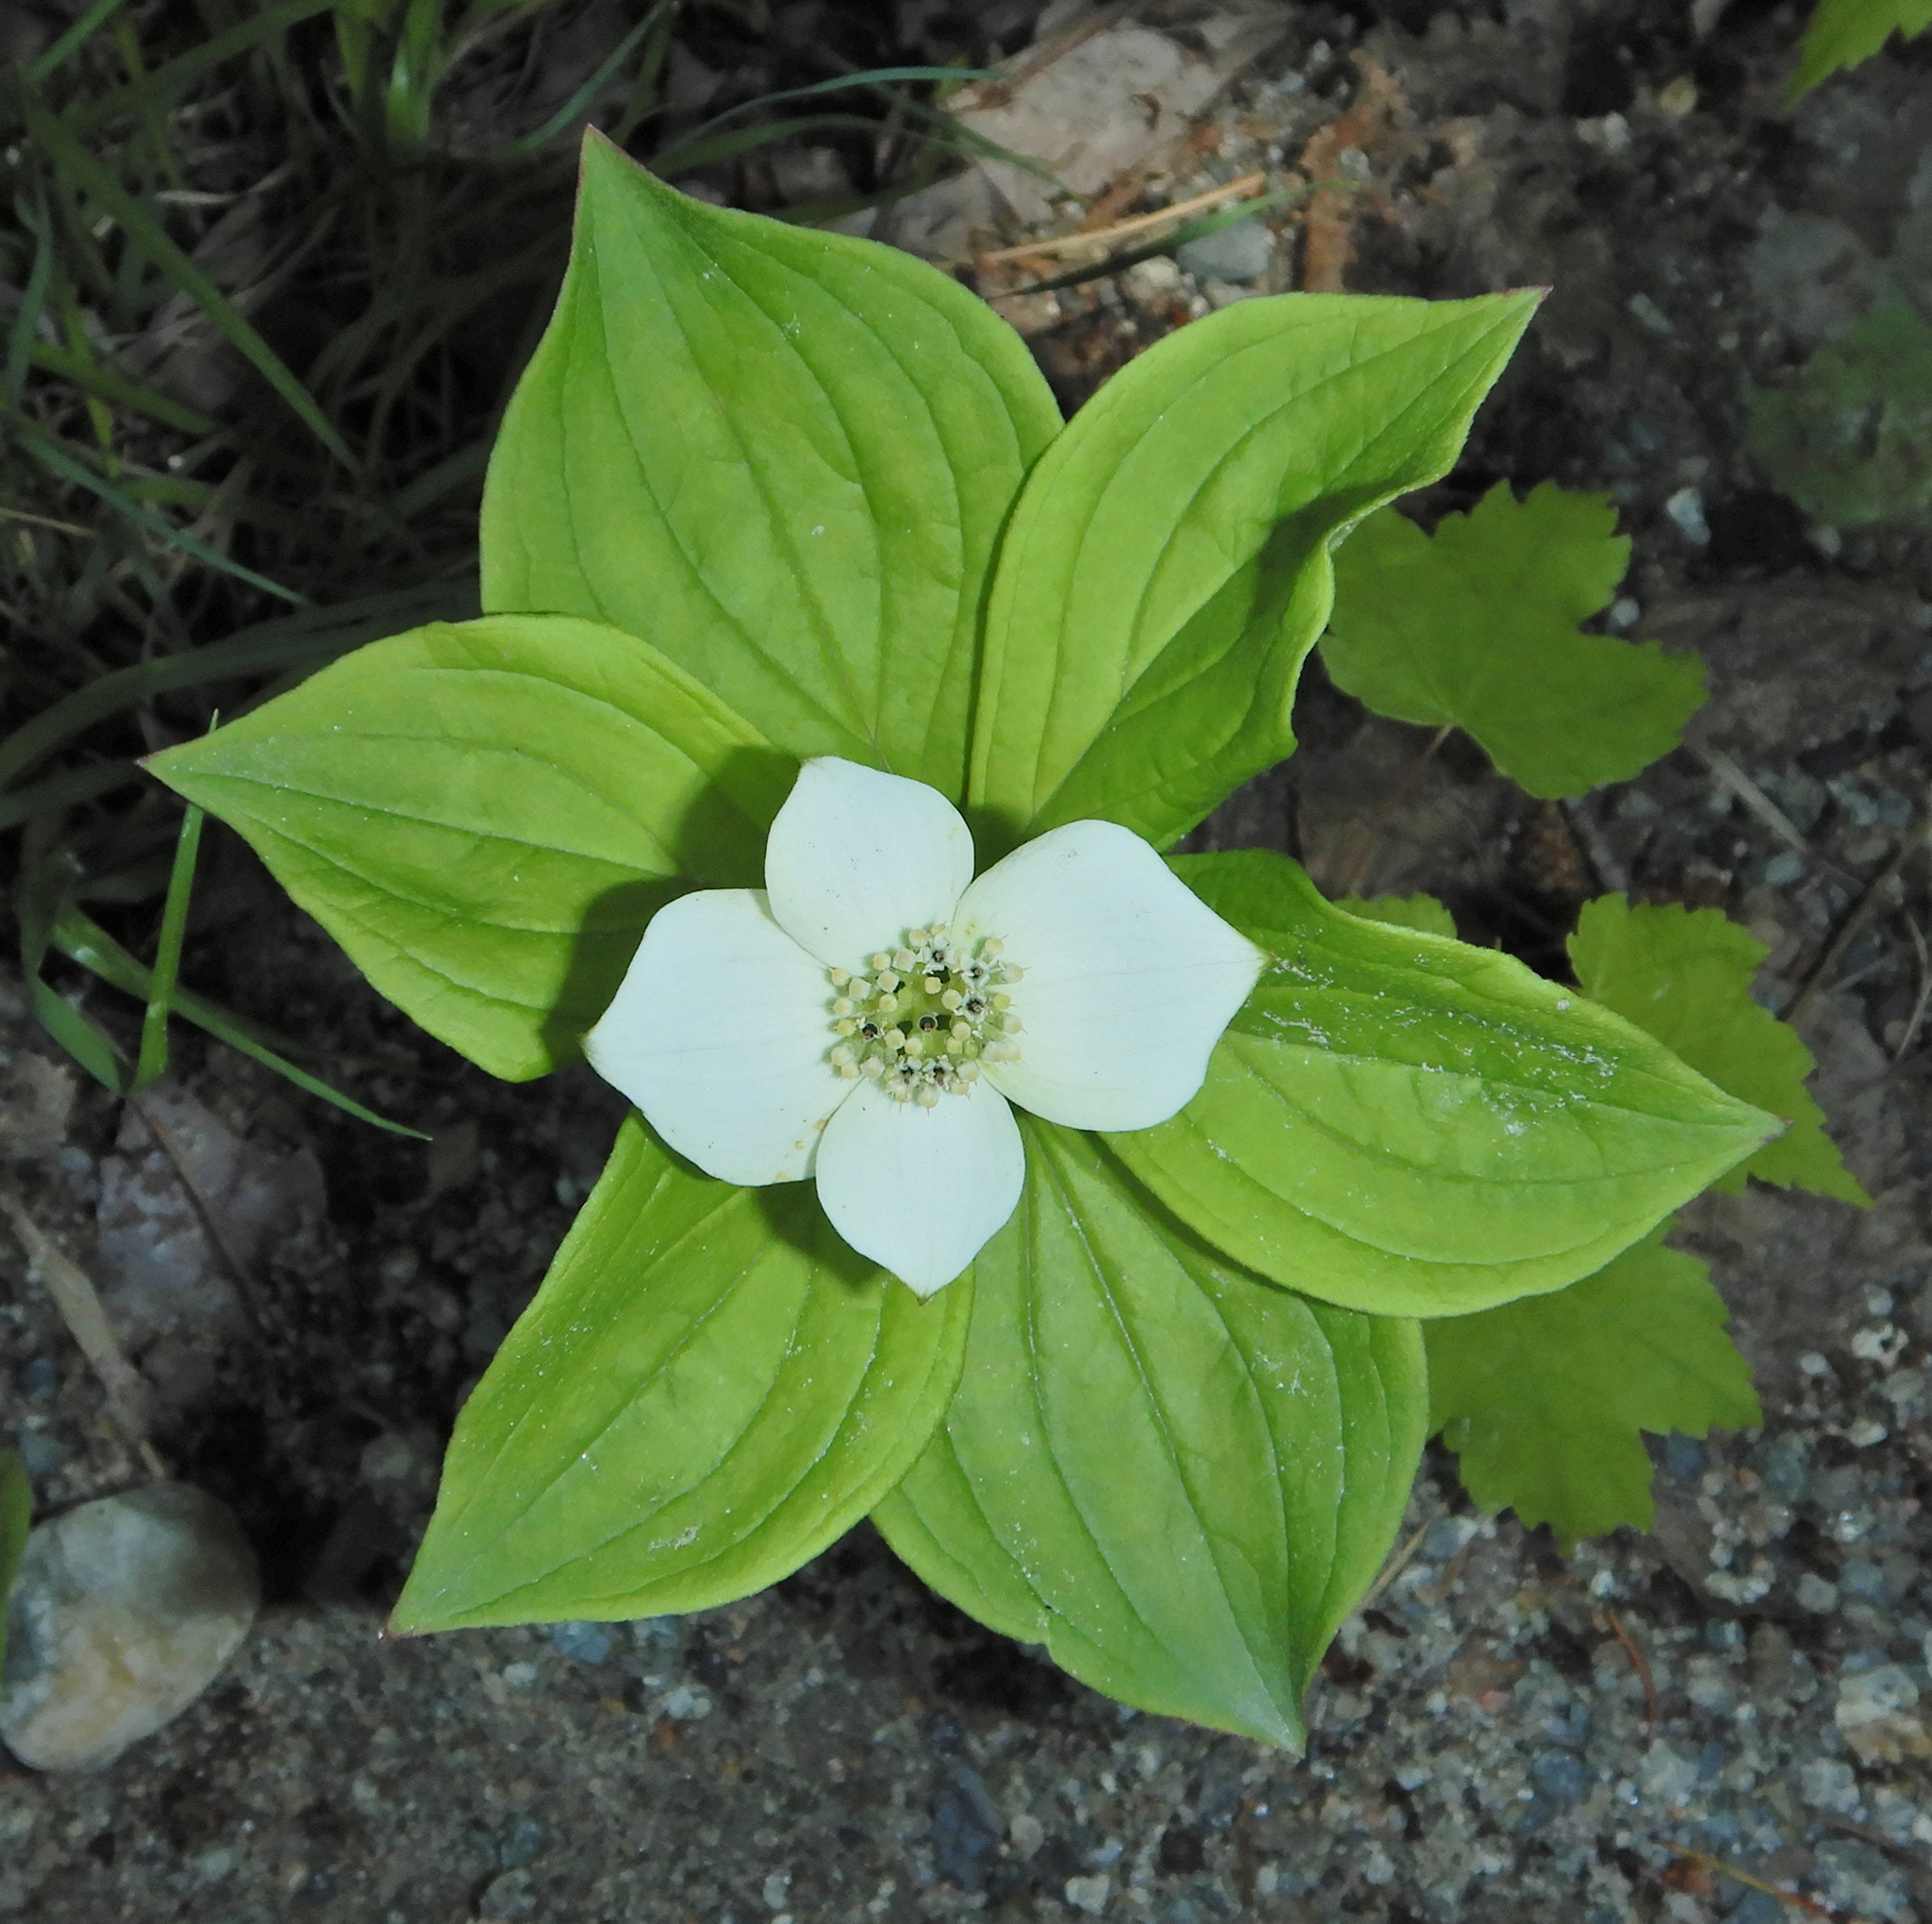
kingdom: Plantae
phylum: Tracheophyta
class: Magnoliopsida
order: Cornales
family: Cornaceae
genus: Cornus
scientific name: Cornus canadensis
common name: Creeping dogwood
